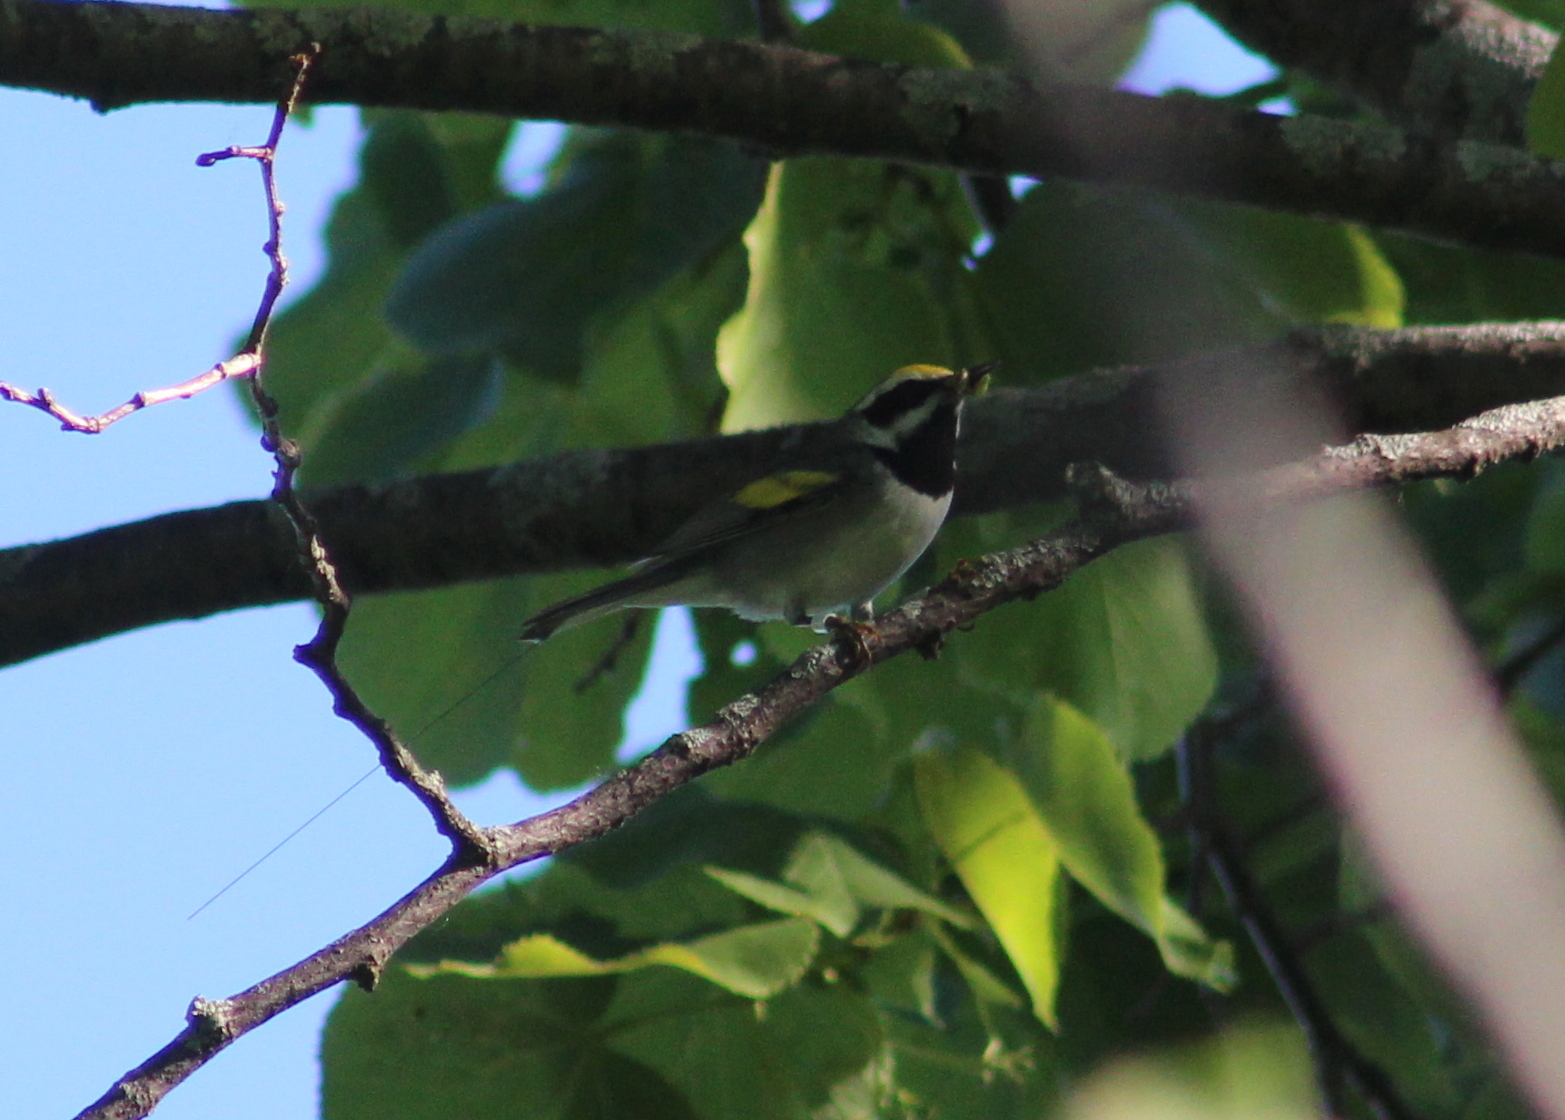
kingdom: Animalia
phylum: Chordata
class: Aves
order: Passeriformes
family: Parulidae
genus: Vermivora
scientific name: Vermivora chrysoptera
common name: Golden-winged warbler
